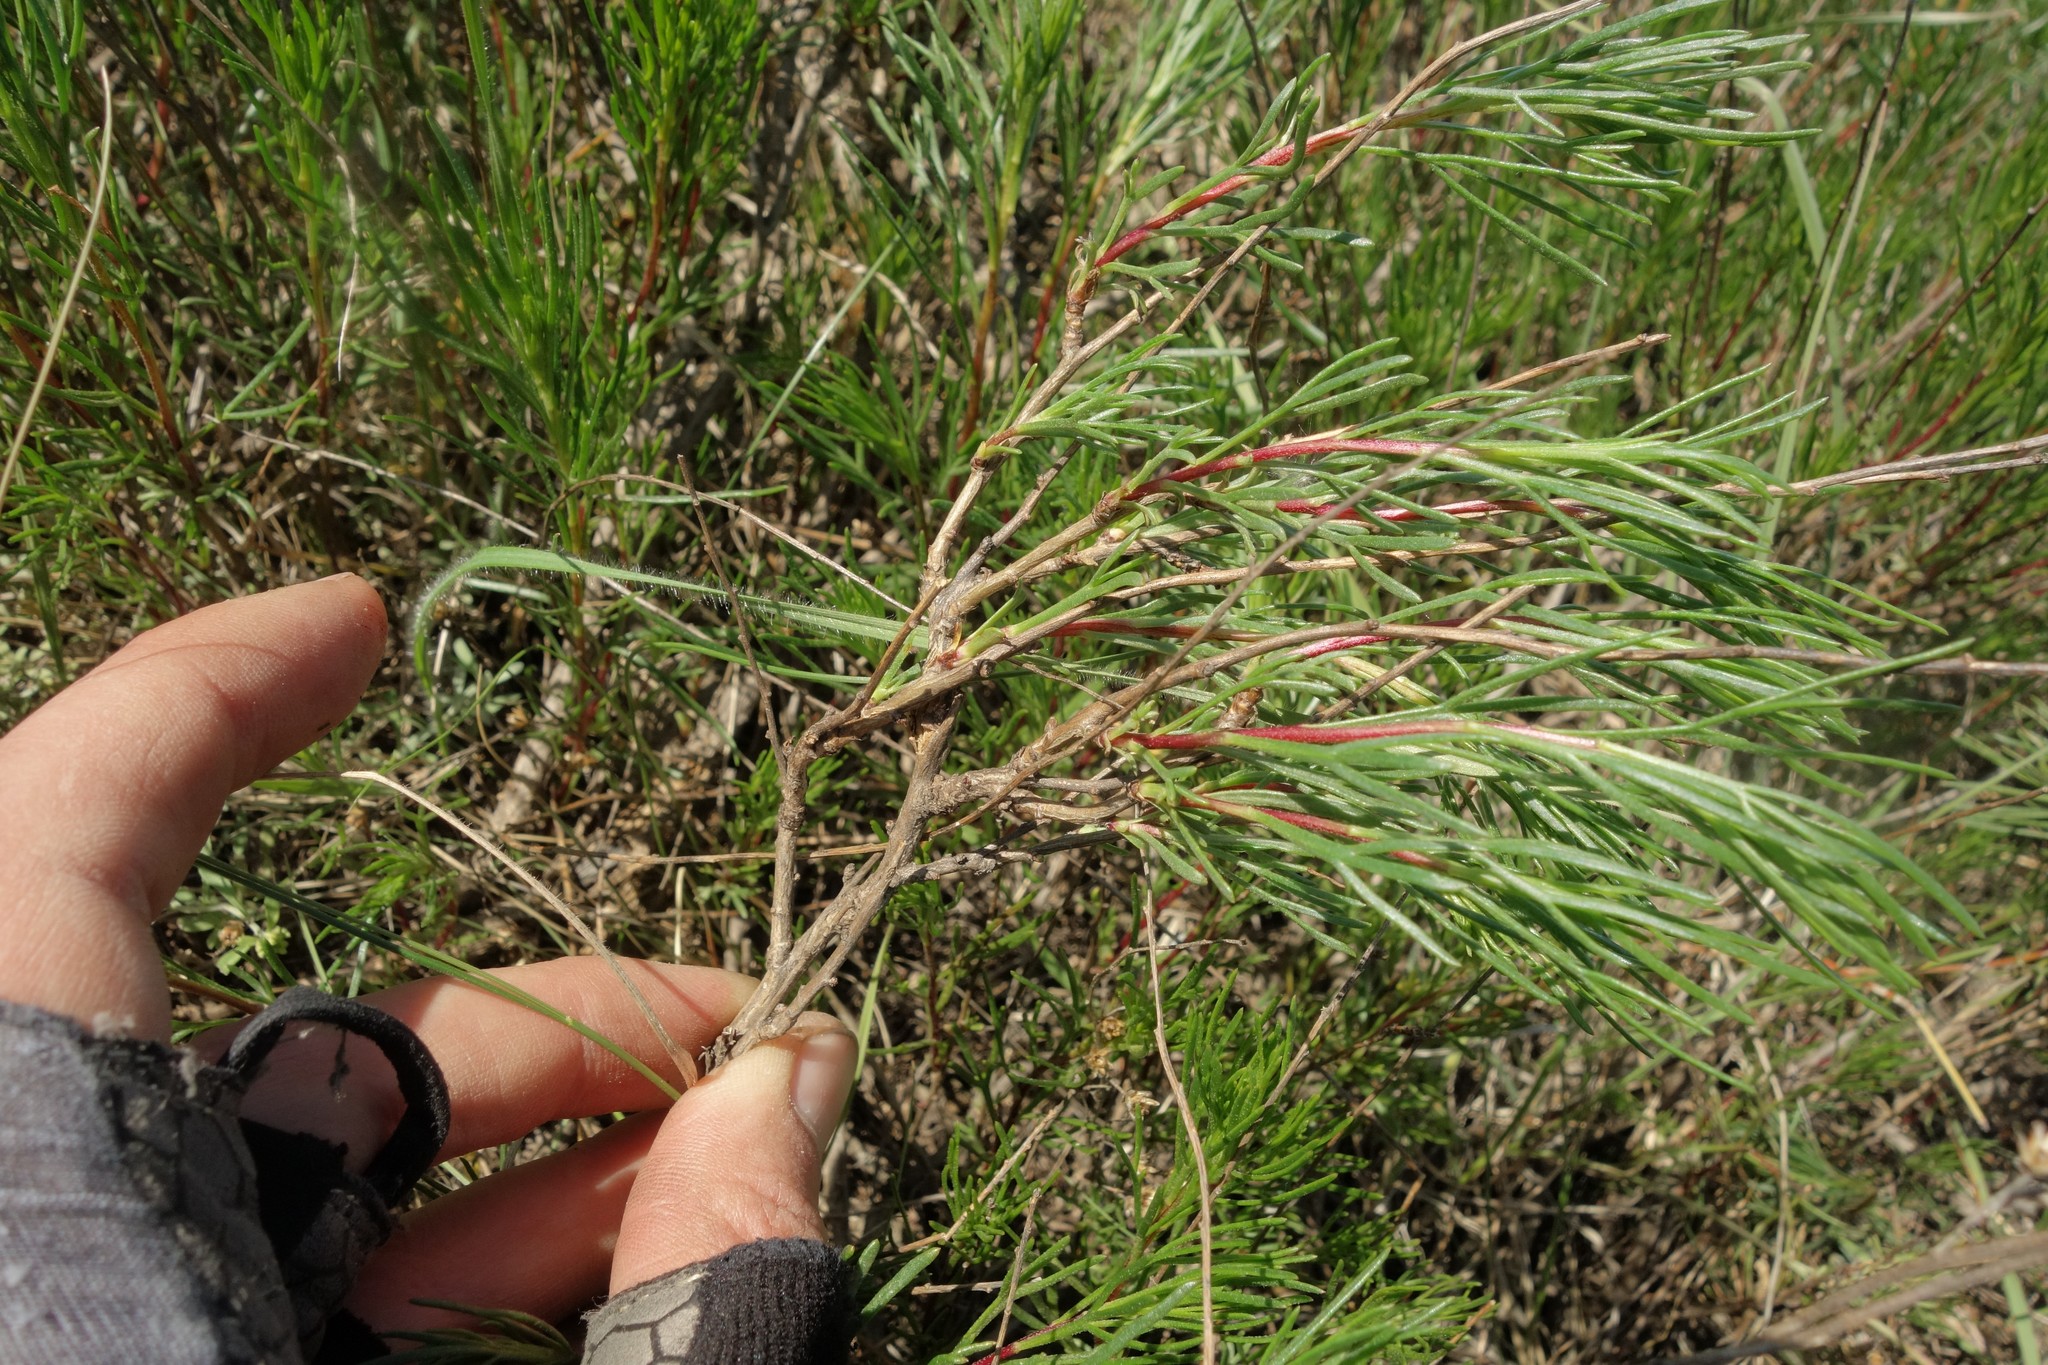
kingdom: Plantae
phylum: Tracheophyta
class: Magnoliopsida
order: Asterales
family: Asteraceae
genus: Artemisia
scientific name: Artemisia salsoloides
